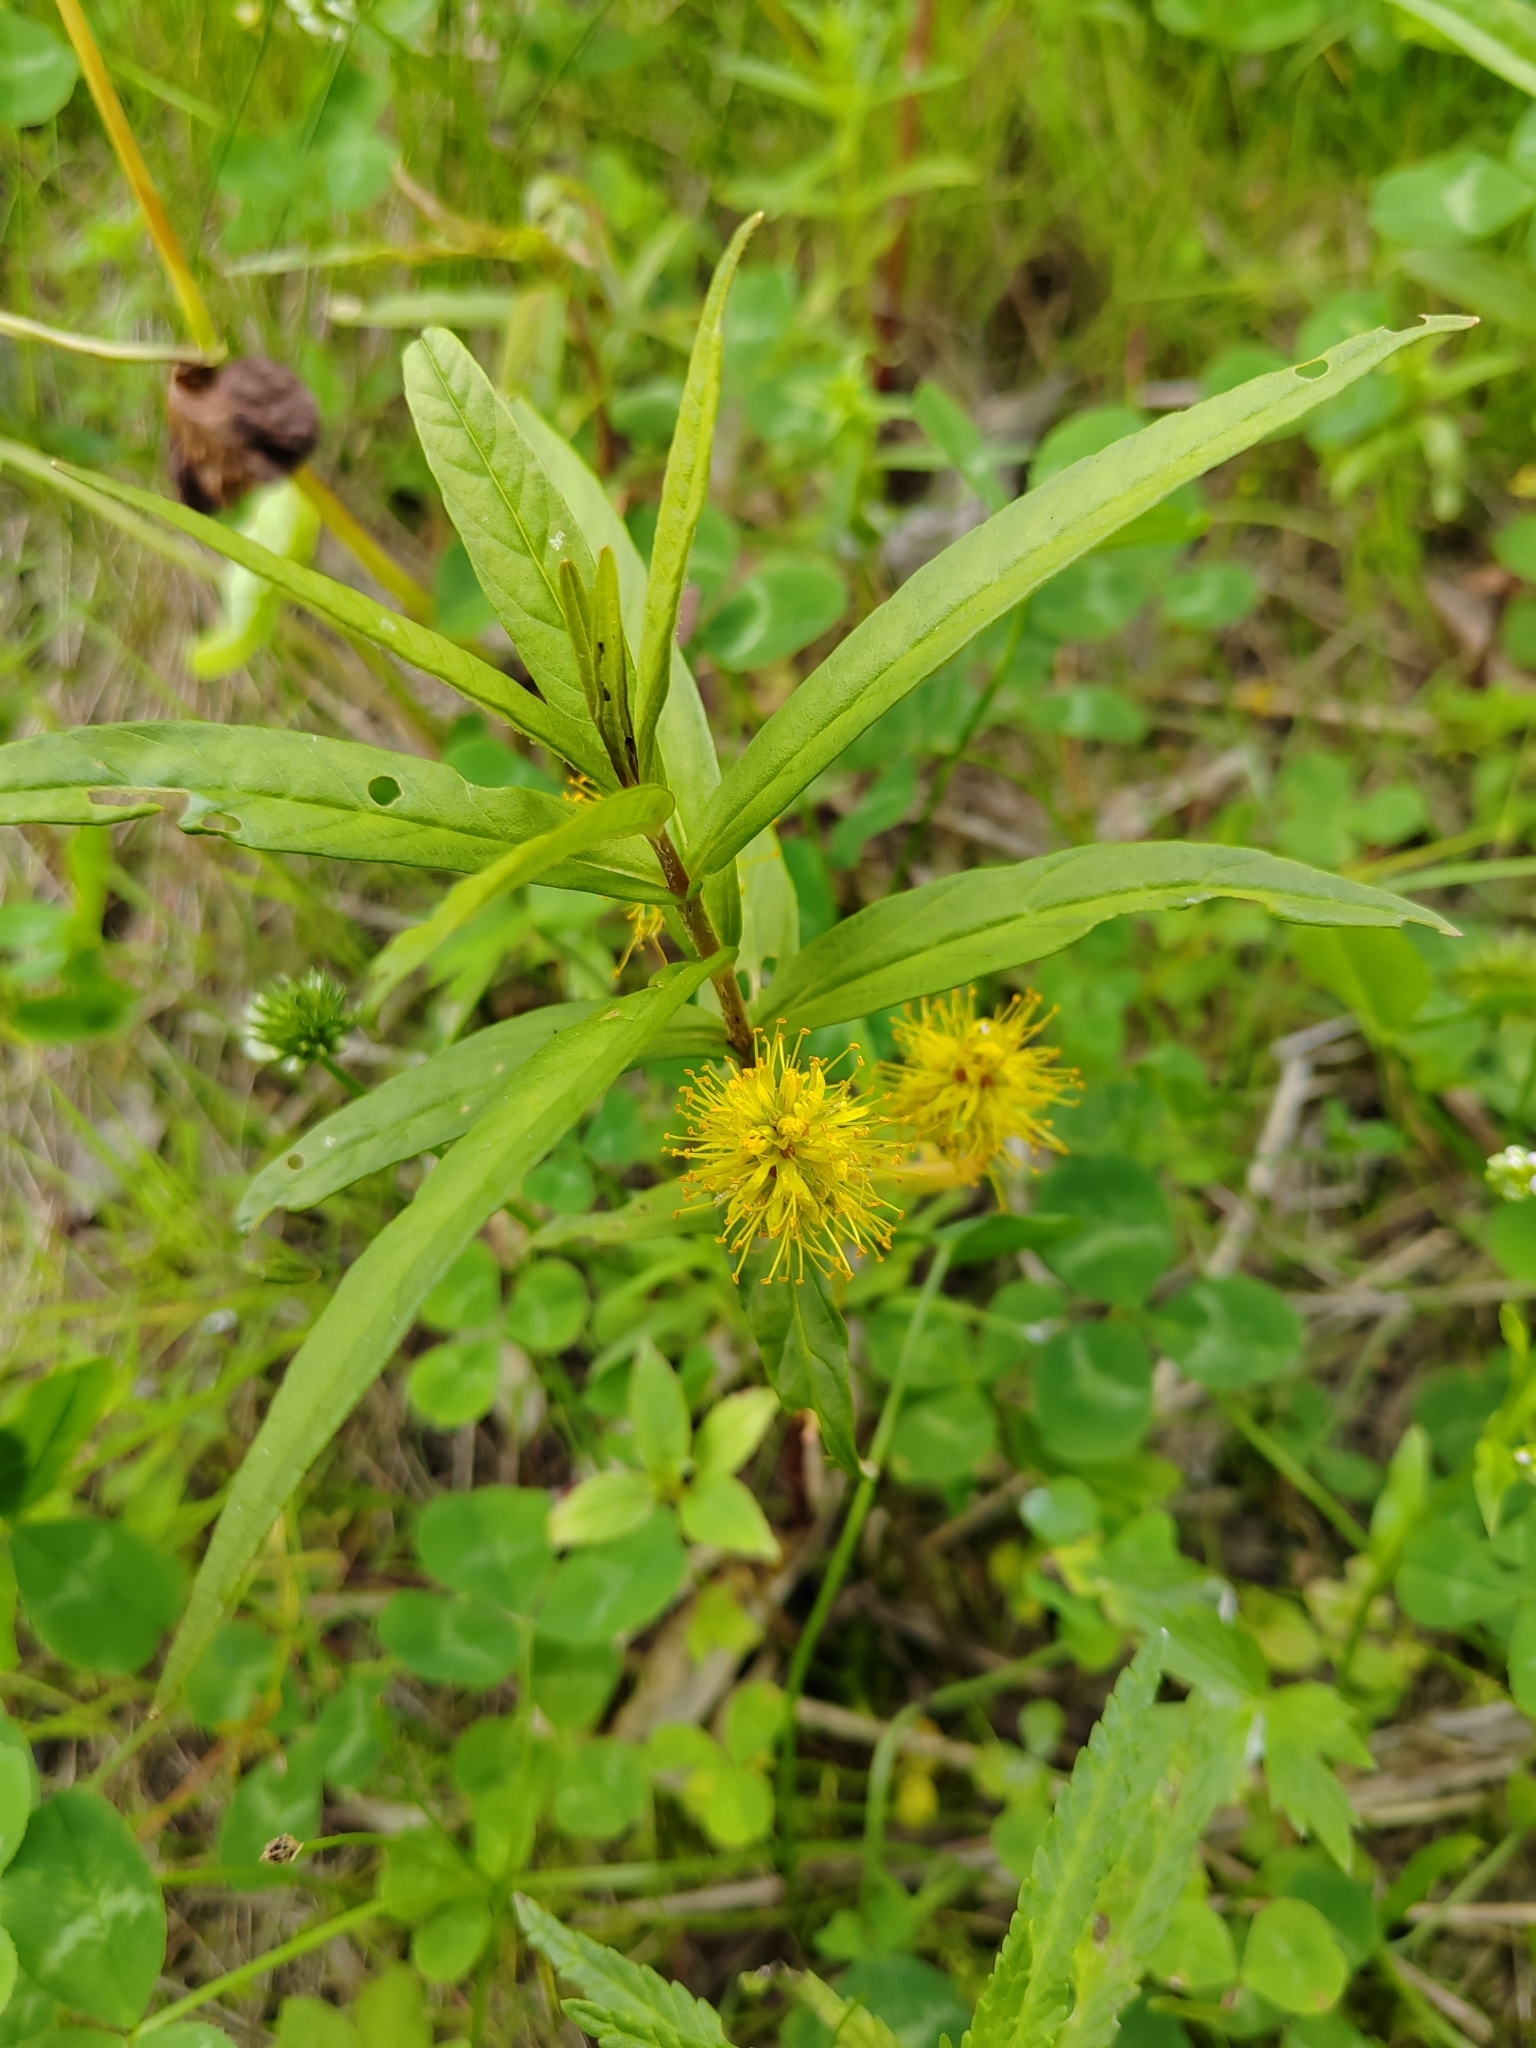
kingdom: Plantae
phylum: Tracheophyta
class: Magnoliopsida
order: Ericales
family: Primulaceae
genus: Lysimachia
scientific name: Lysimachia thyrsiflora
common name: Tufted loosestrife
